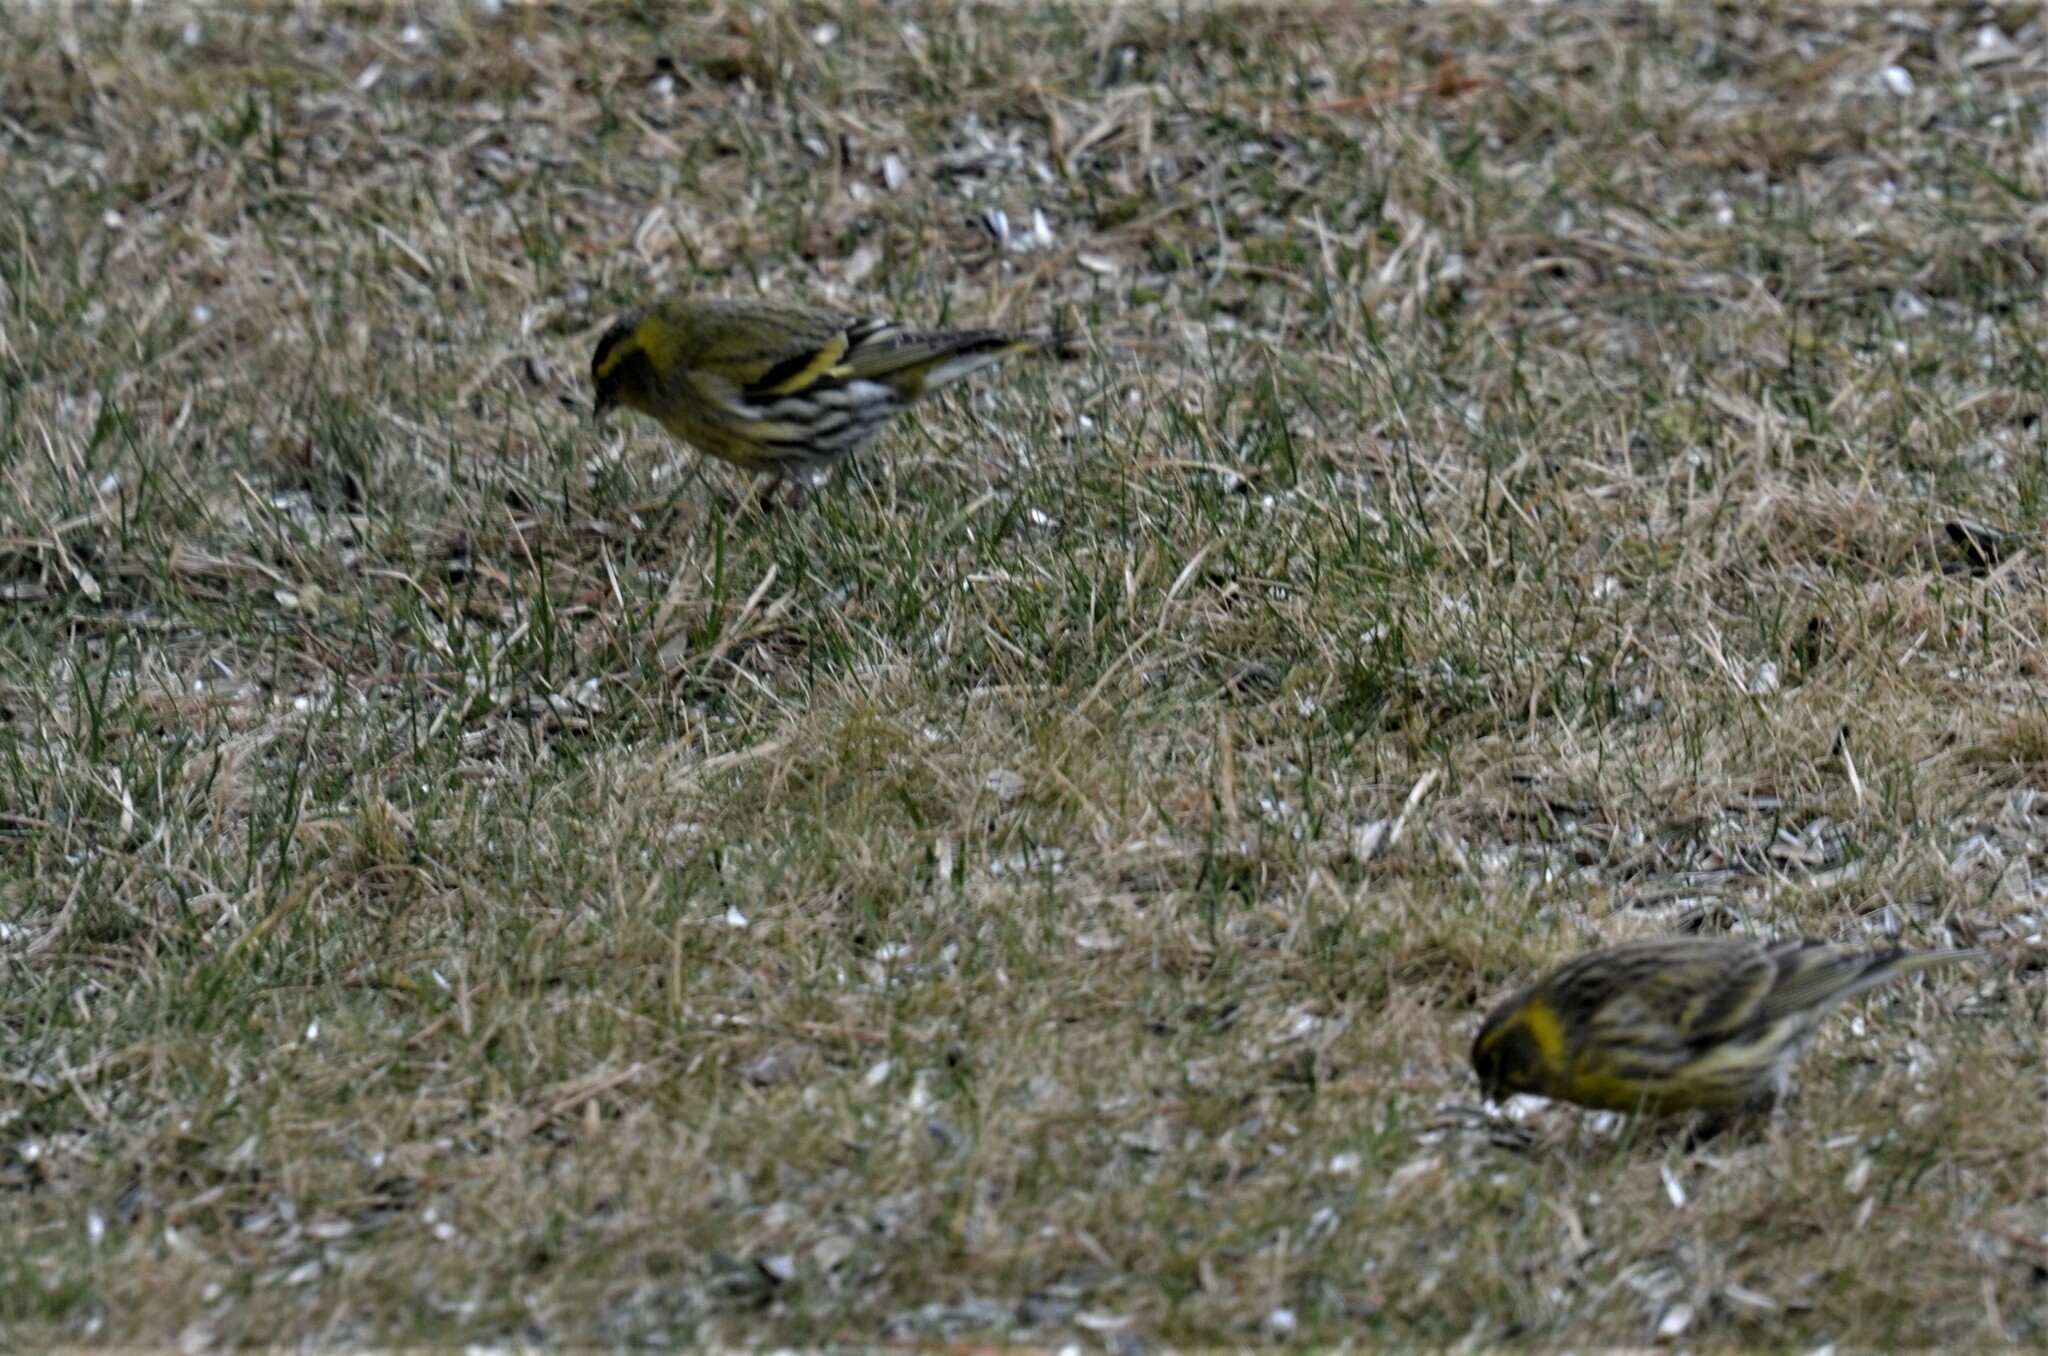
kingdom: Animalia
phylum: Chordata
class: Aves
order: Passeriformes
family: Fringillidae
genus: Spinus
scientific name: Spinus spinus
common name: Eurasian siskin
